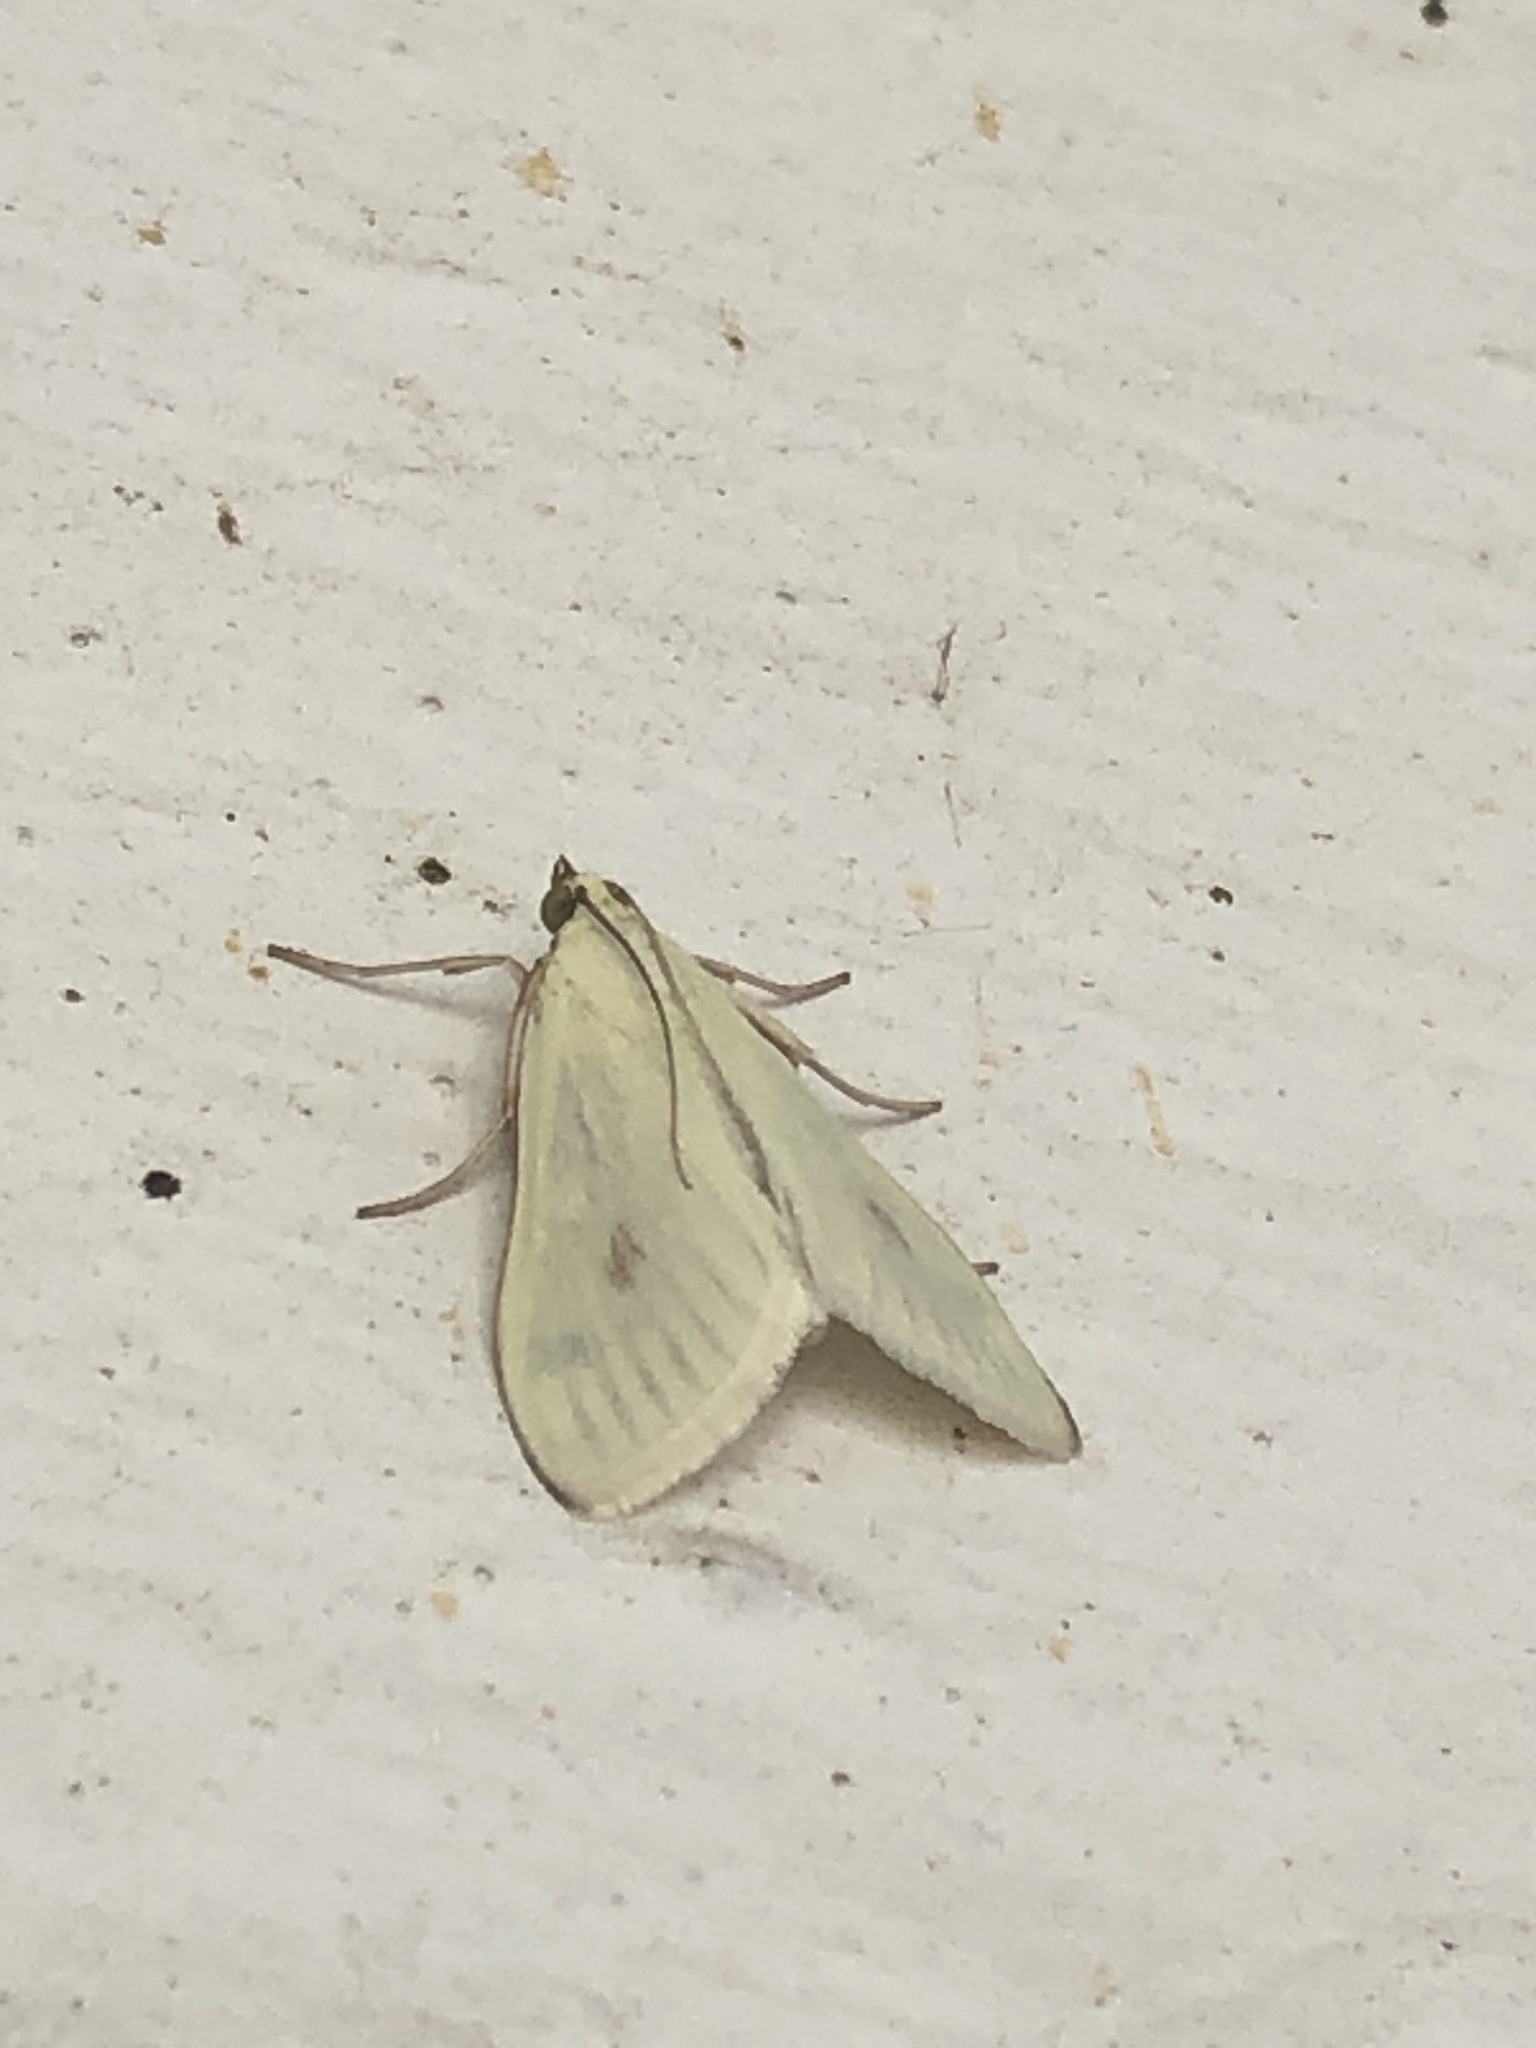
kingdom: Animalia
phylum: Arthropoda
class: Insecta
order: Lepidoptera
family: Crambidae
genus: Sitochroa
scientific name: Sitochroa palealis
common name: Greenish-yellow sitochroa moth
